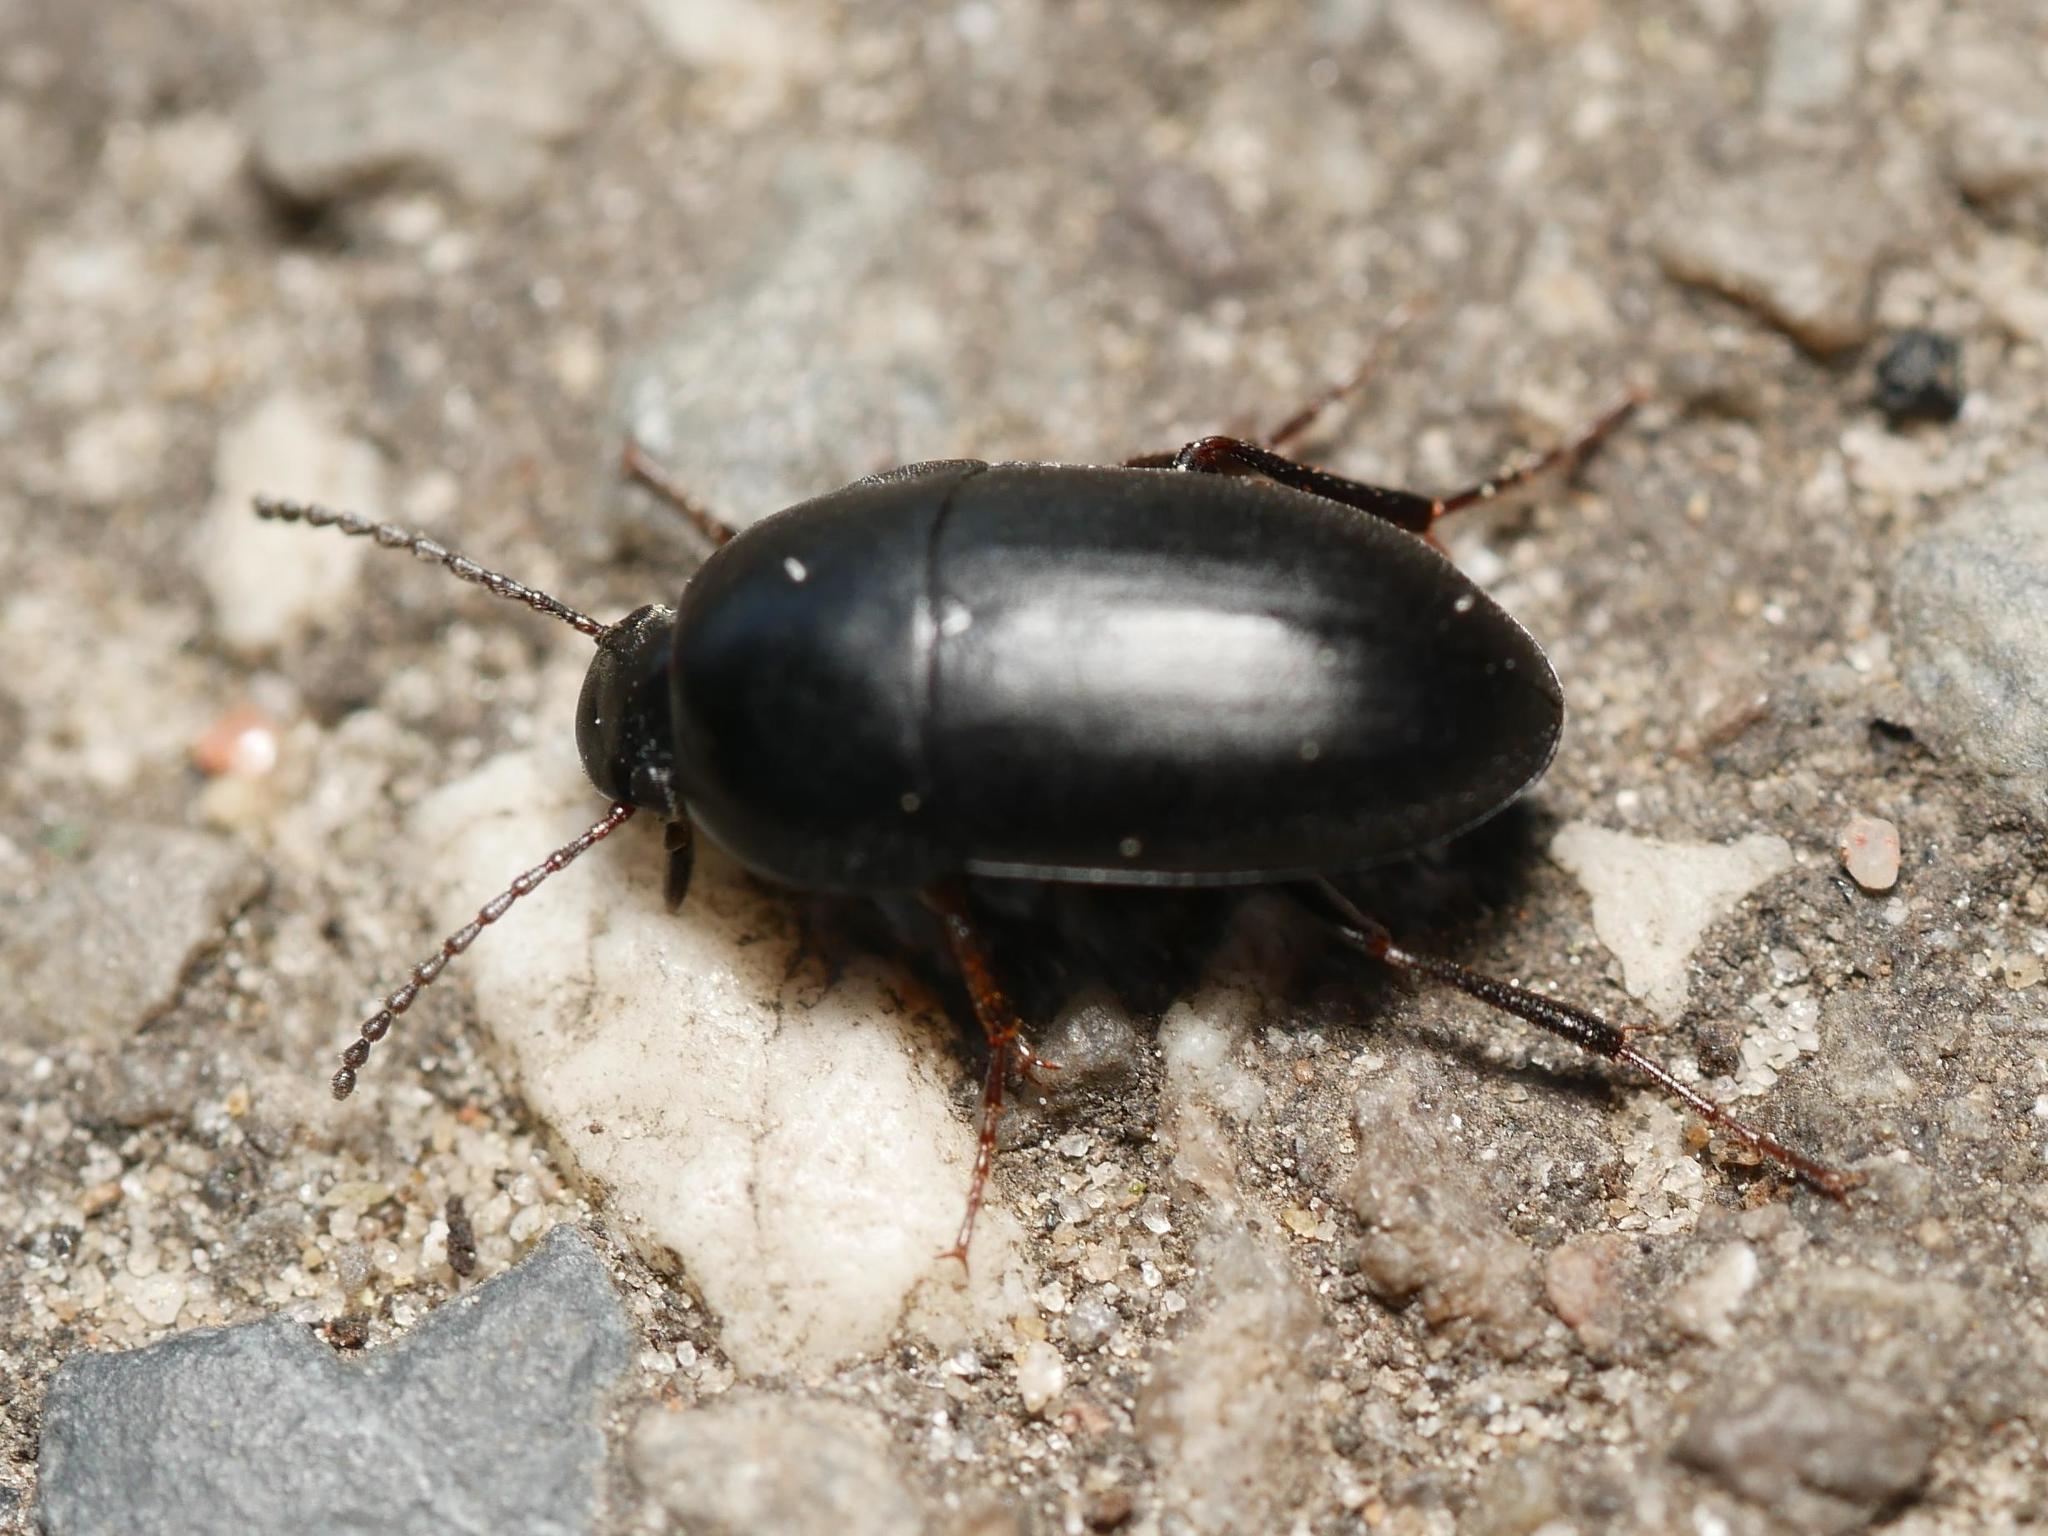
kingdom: Animalia
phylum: Arthropoda
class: Insecta
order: Coleoptera
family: Tenebrionidae
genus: Crypticus
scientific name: Crypticus quisquilius
